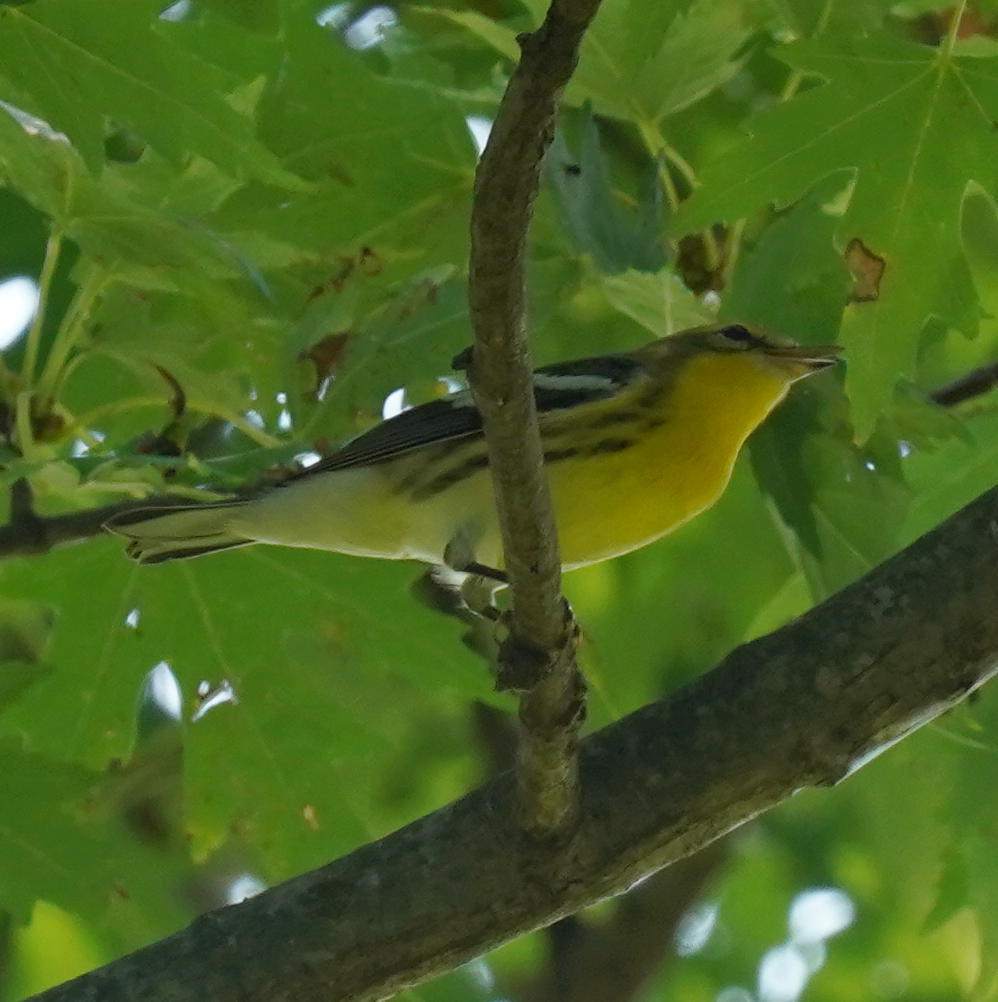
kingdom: Animalia
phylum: Chordata
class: Aves
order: Passeriformes
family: Parulidae
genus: Setophaga
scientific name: Setophaga fusca
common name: Blackburnian warbler
